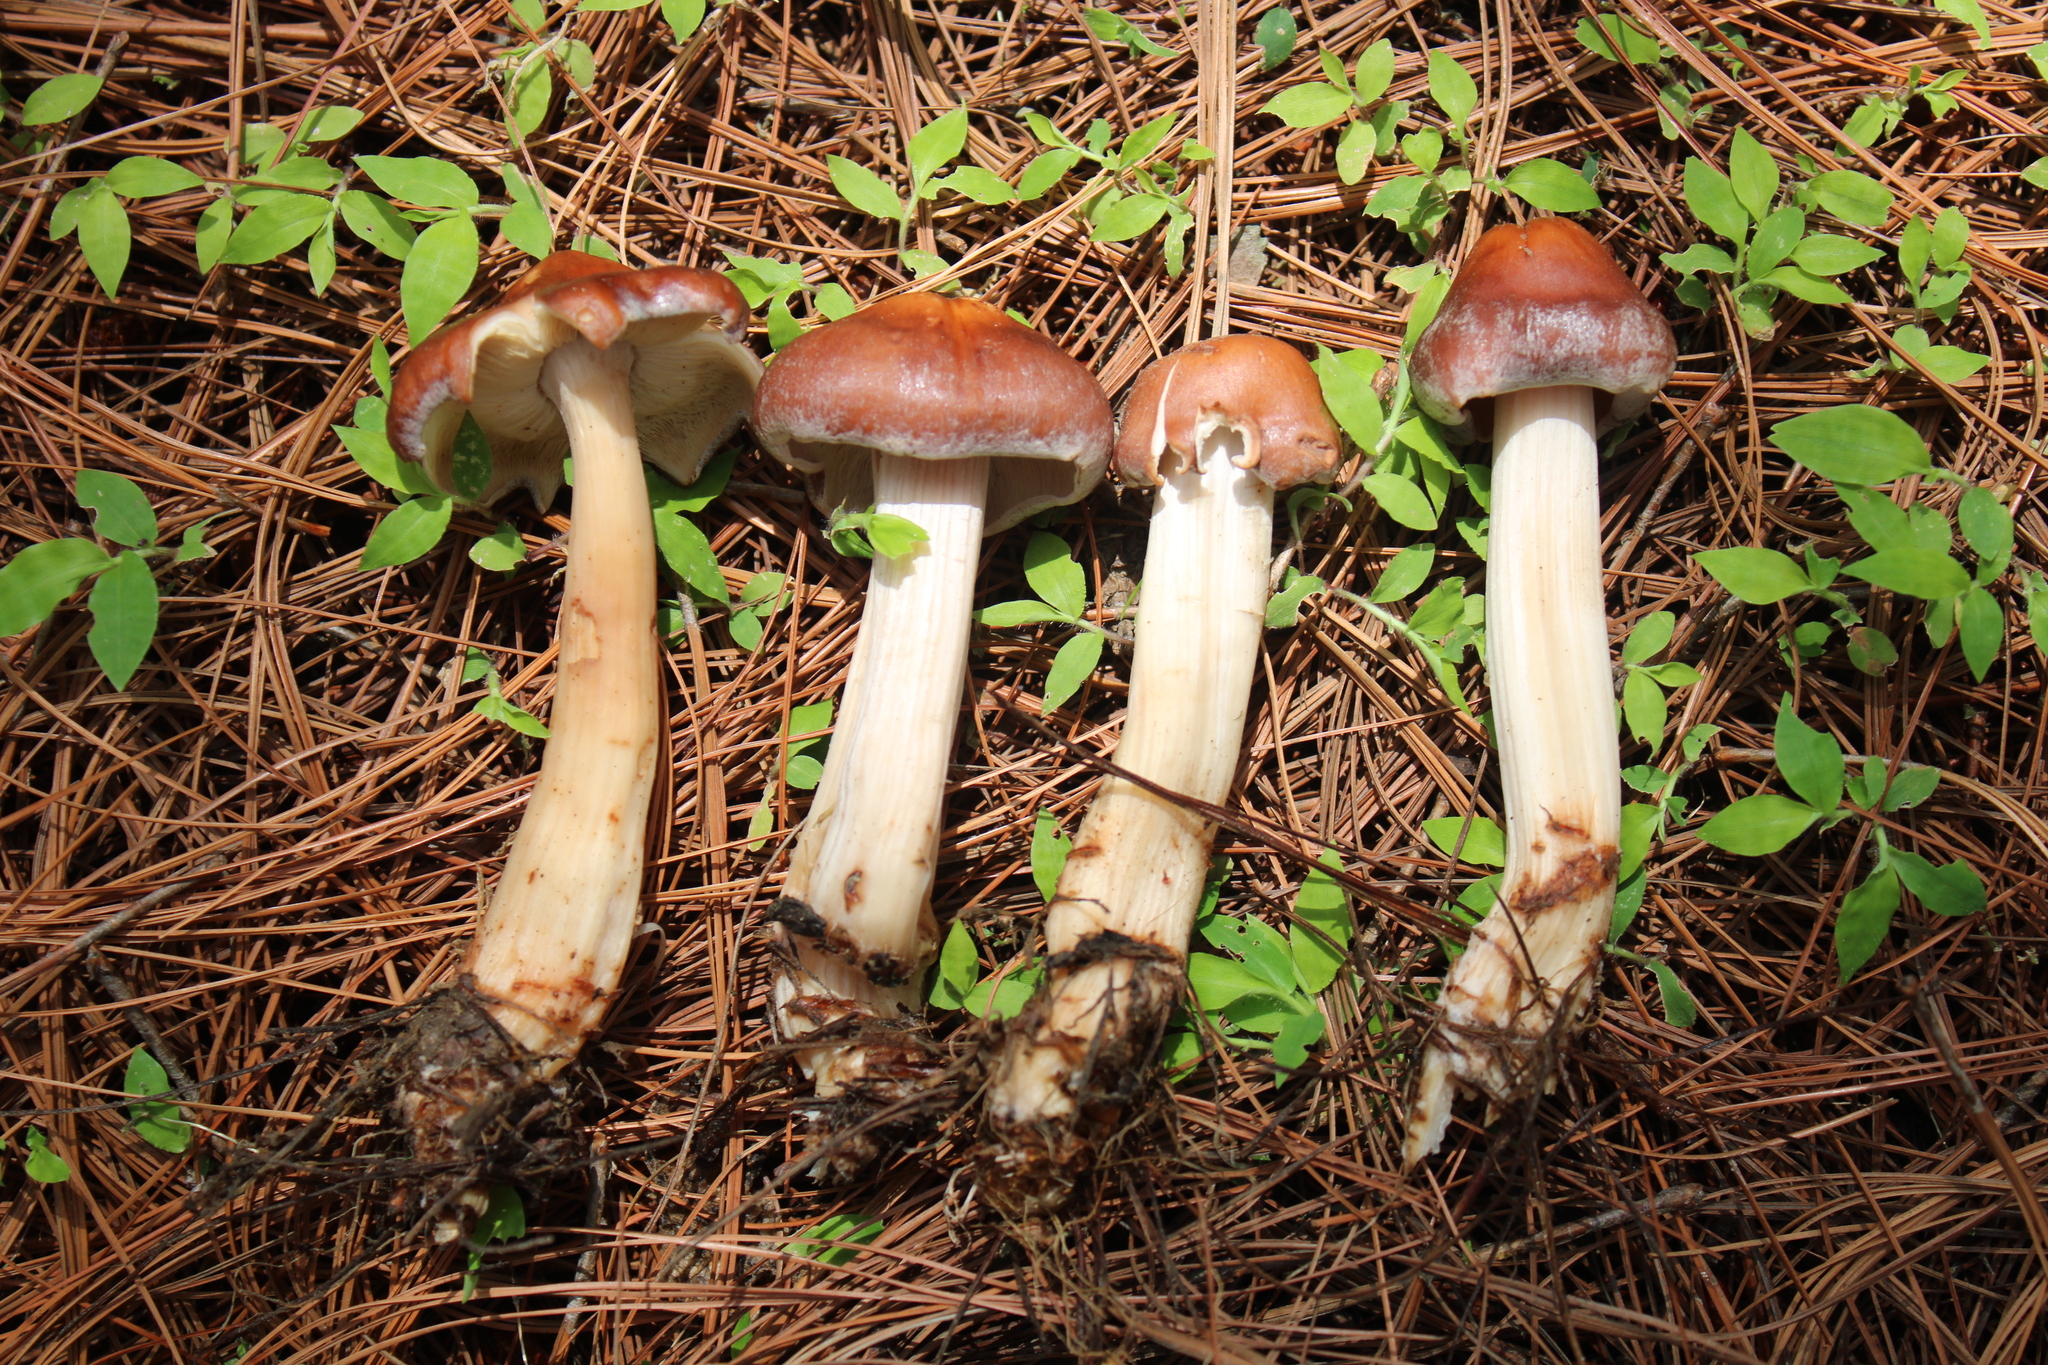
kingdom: Fungi
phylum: Basidiomycota
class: Agaricomycetes
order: Agaricales
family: Omphalotaceae
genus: Rhodocollybia
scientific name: Rhodocollybia maculata
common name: Spotted tough-shank
